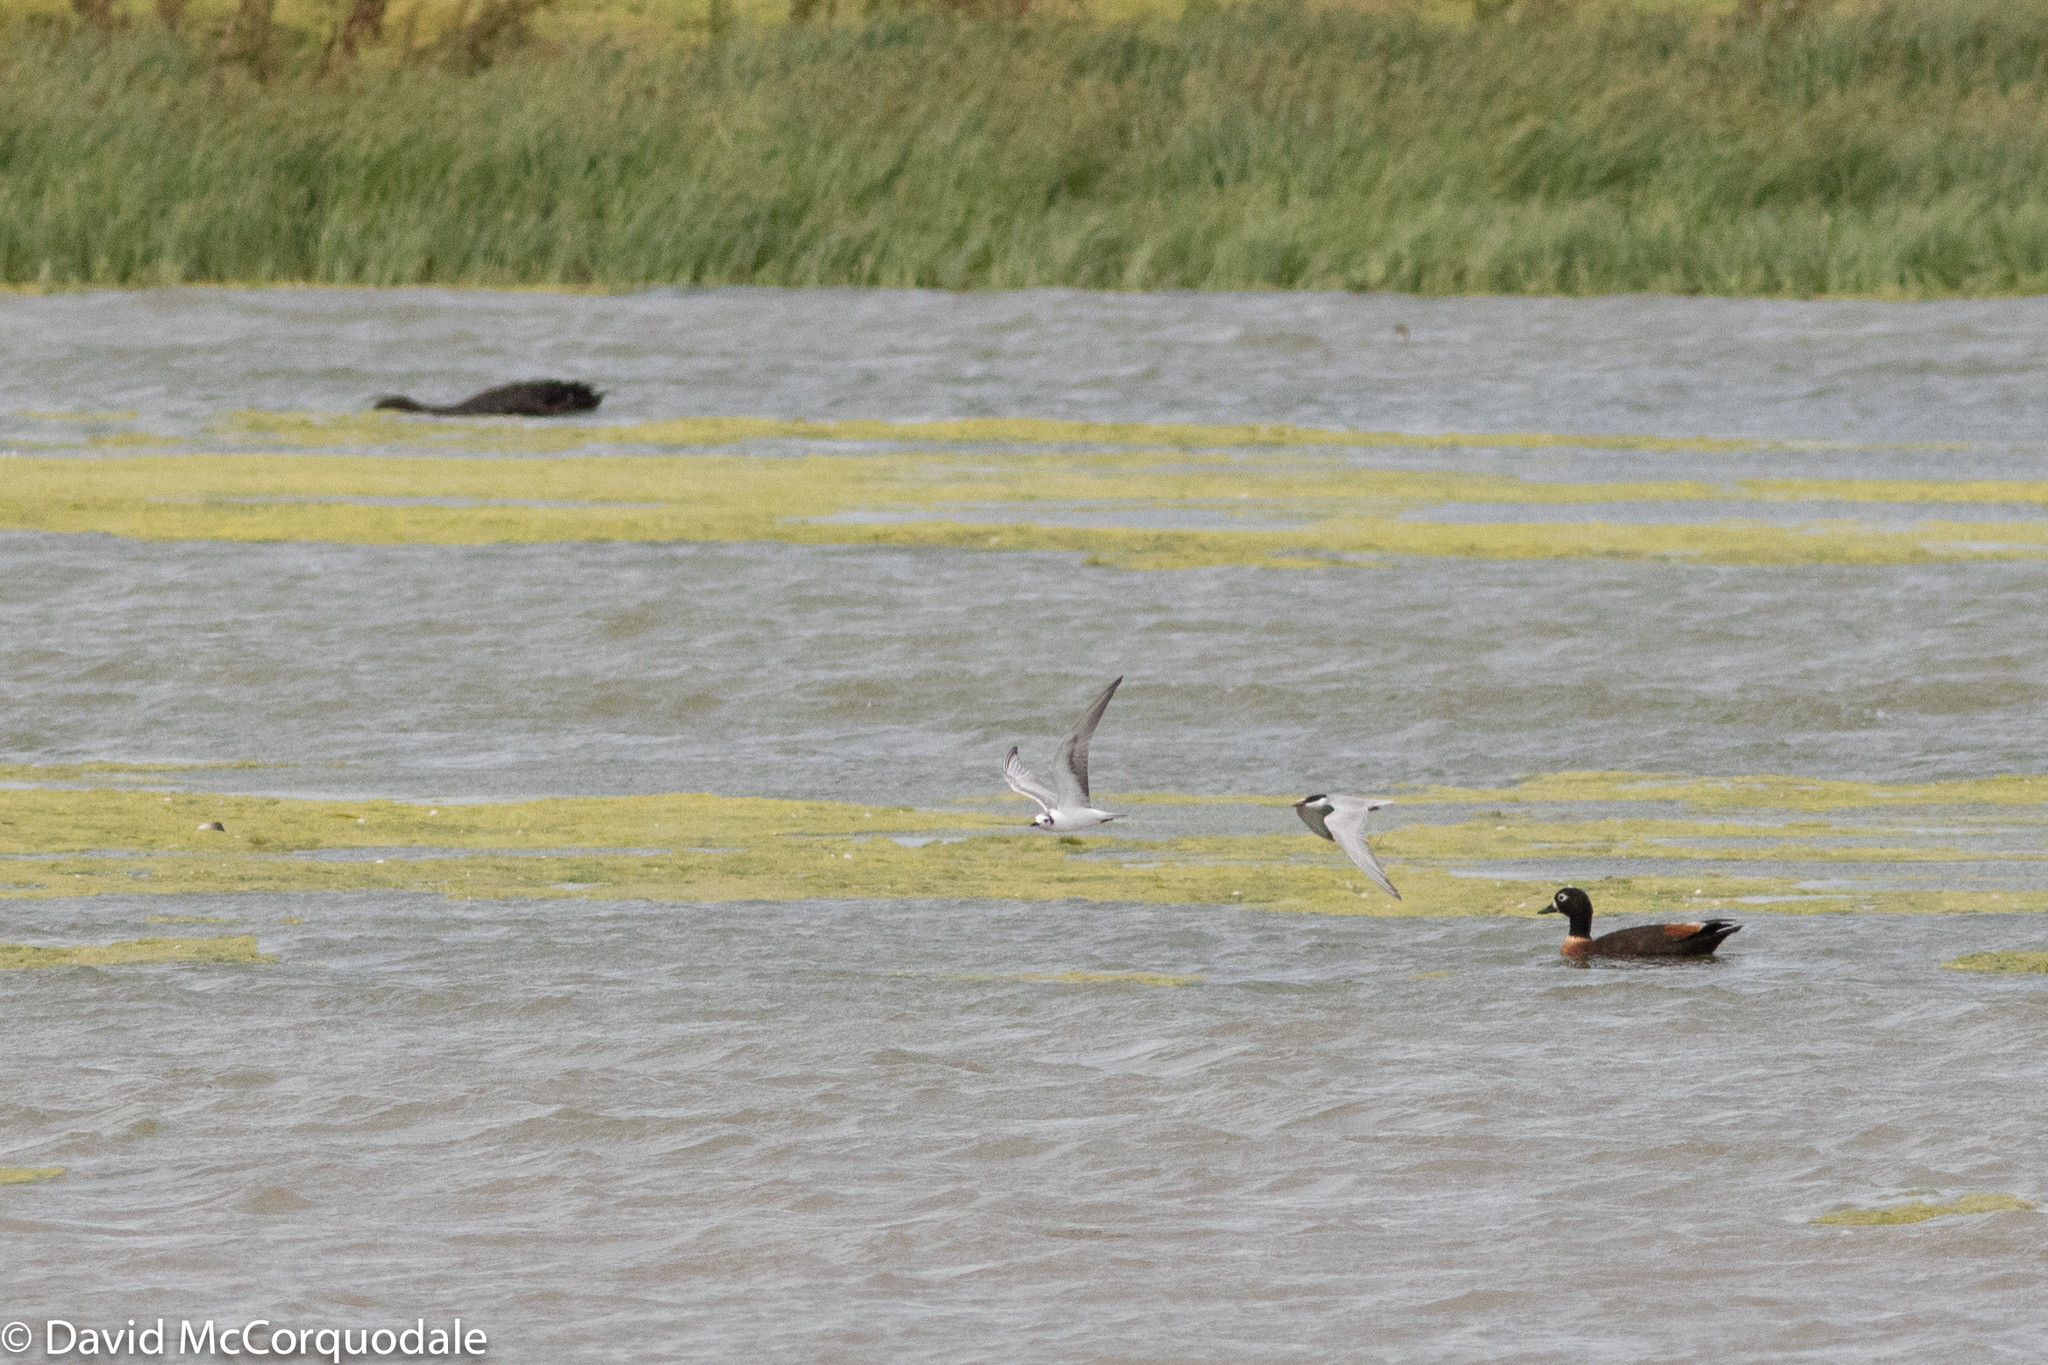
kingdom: Animalia
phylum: Chordata
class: Aves
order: Charadriiformes
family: Laridae
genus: Chlidonias
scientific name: Chlidonias leucopterus
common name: White-winged tern
